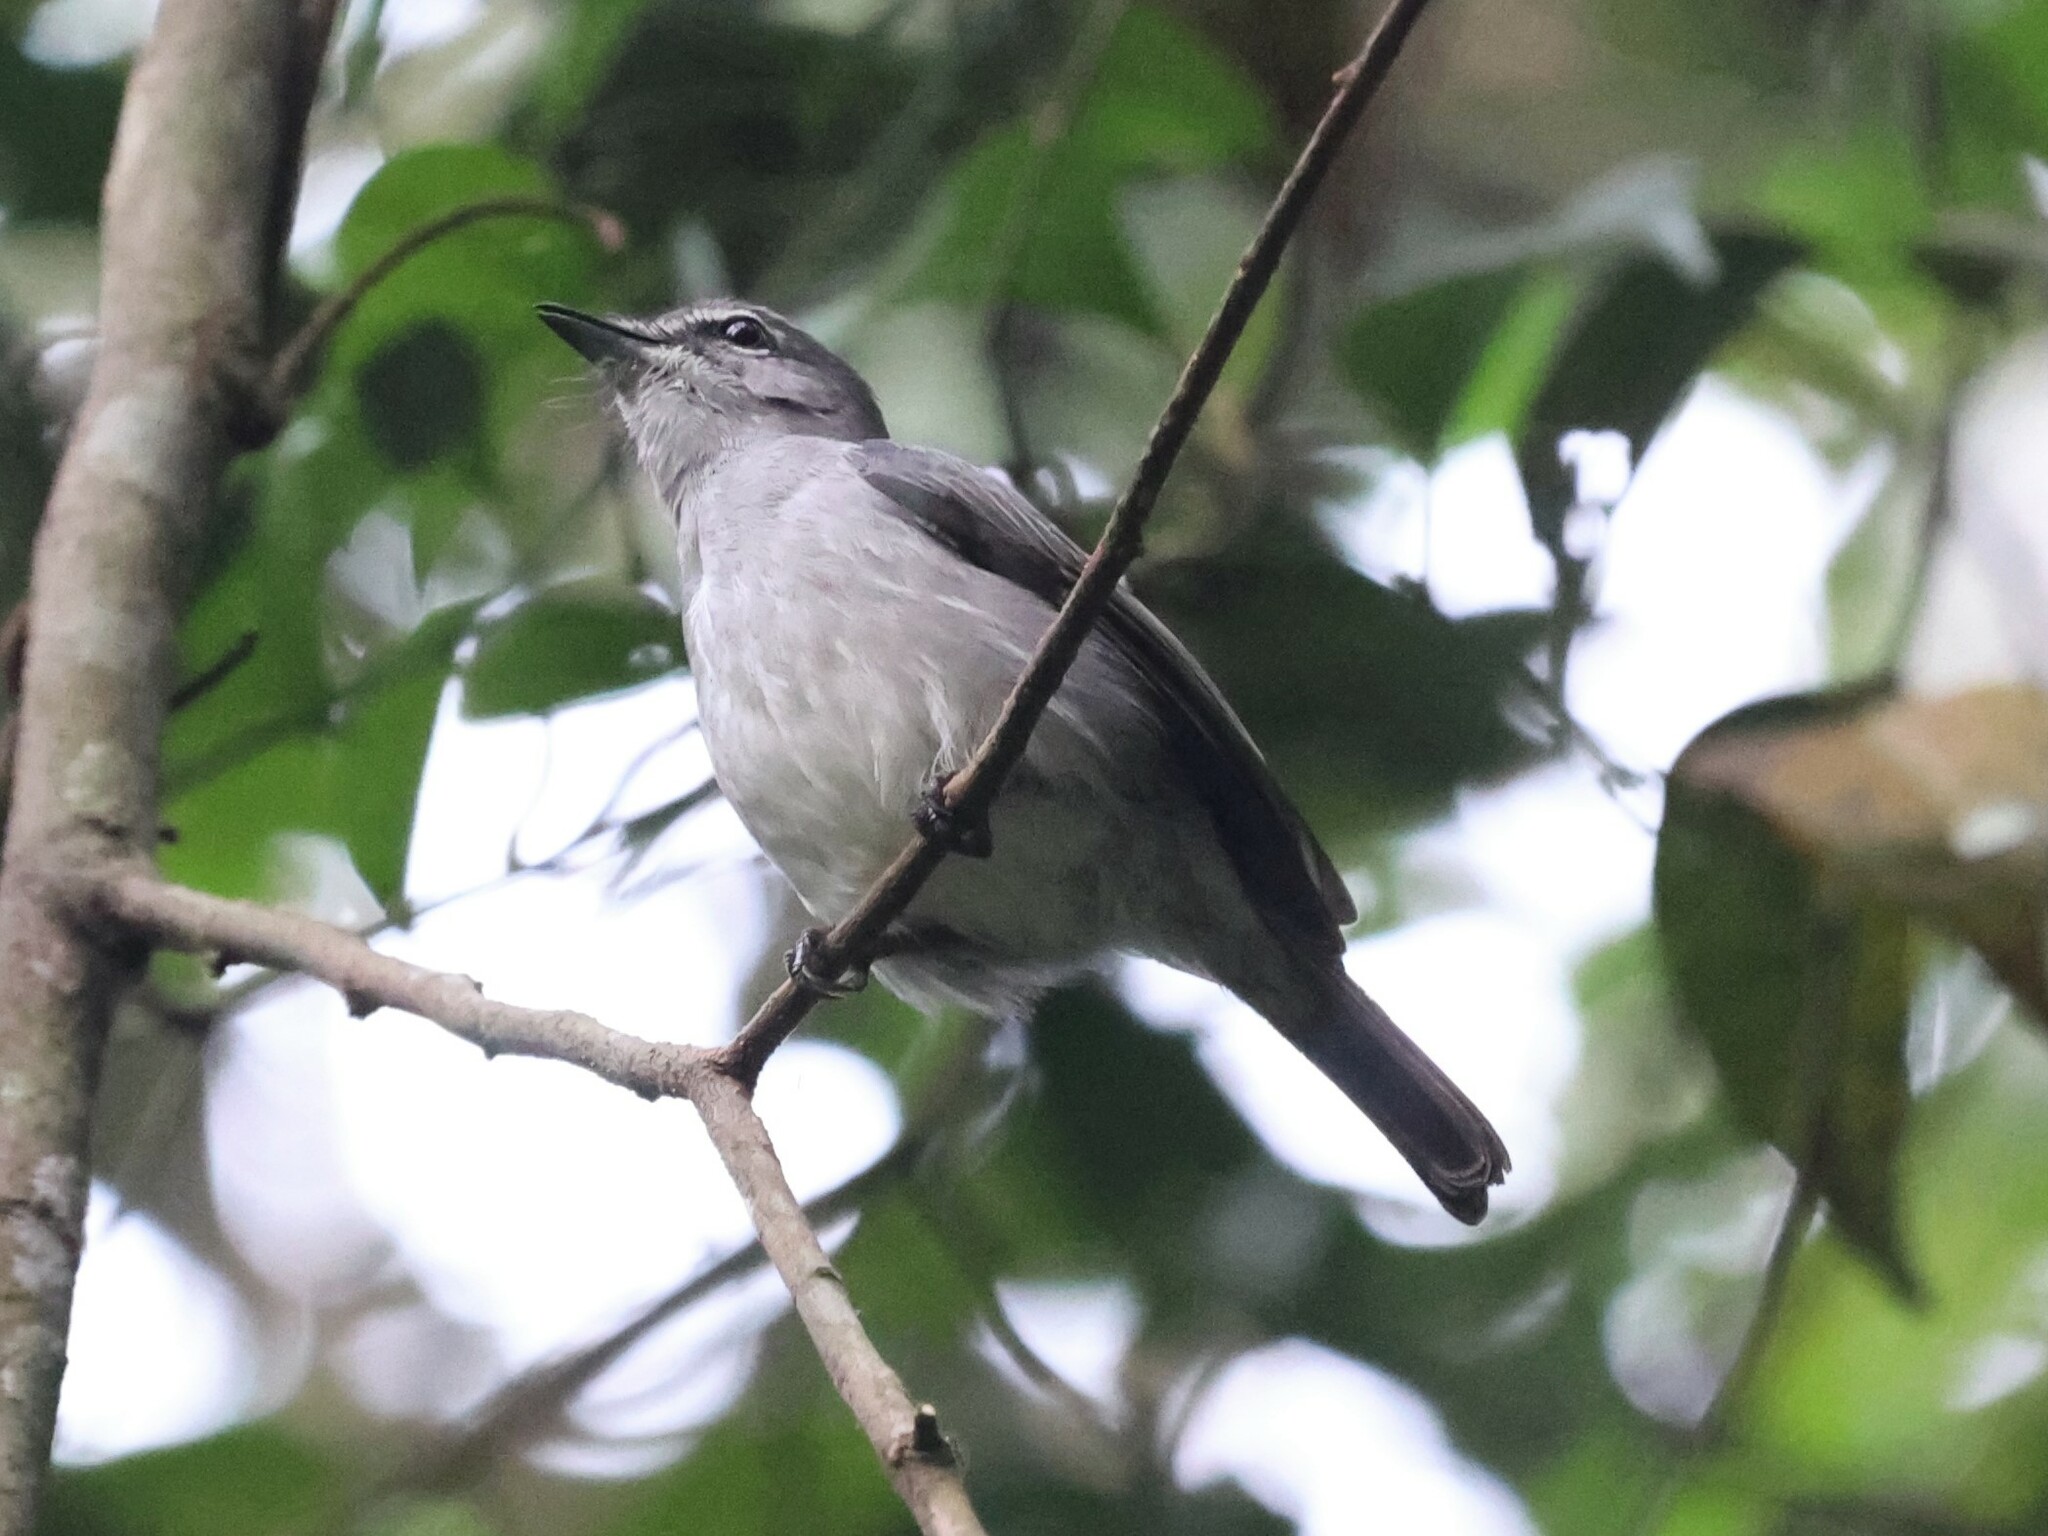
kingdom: Animalia
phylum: Chordata
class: Aves
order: Passeriformes
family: Muscicapidae
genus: Muscicapa
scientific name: Muscicapa caerulescens
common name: Ashy flycatcher
